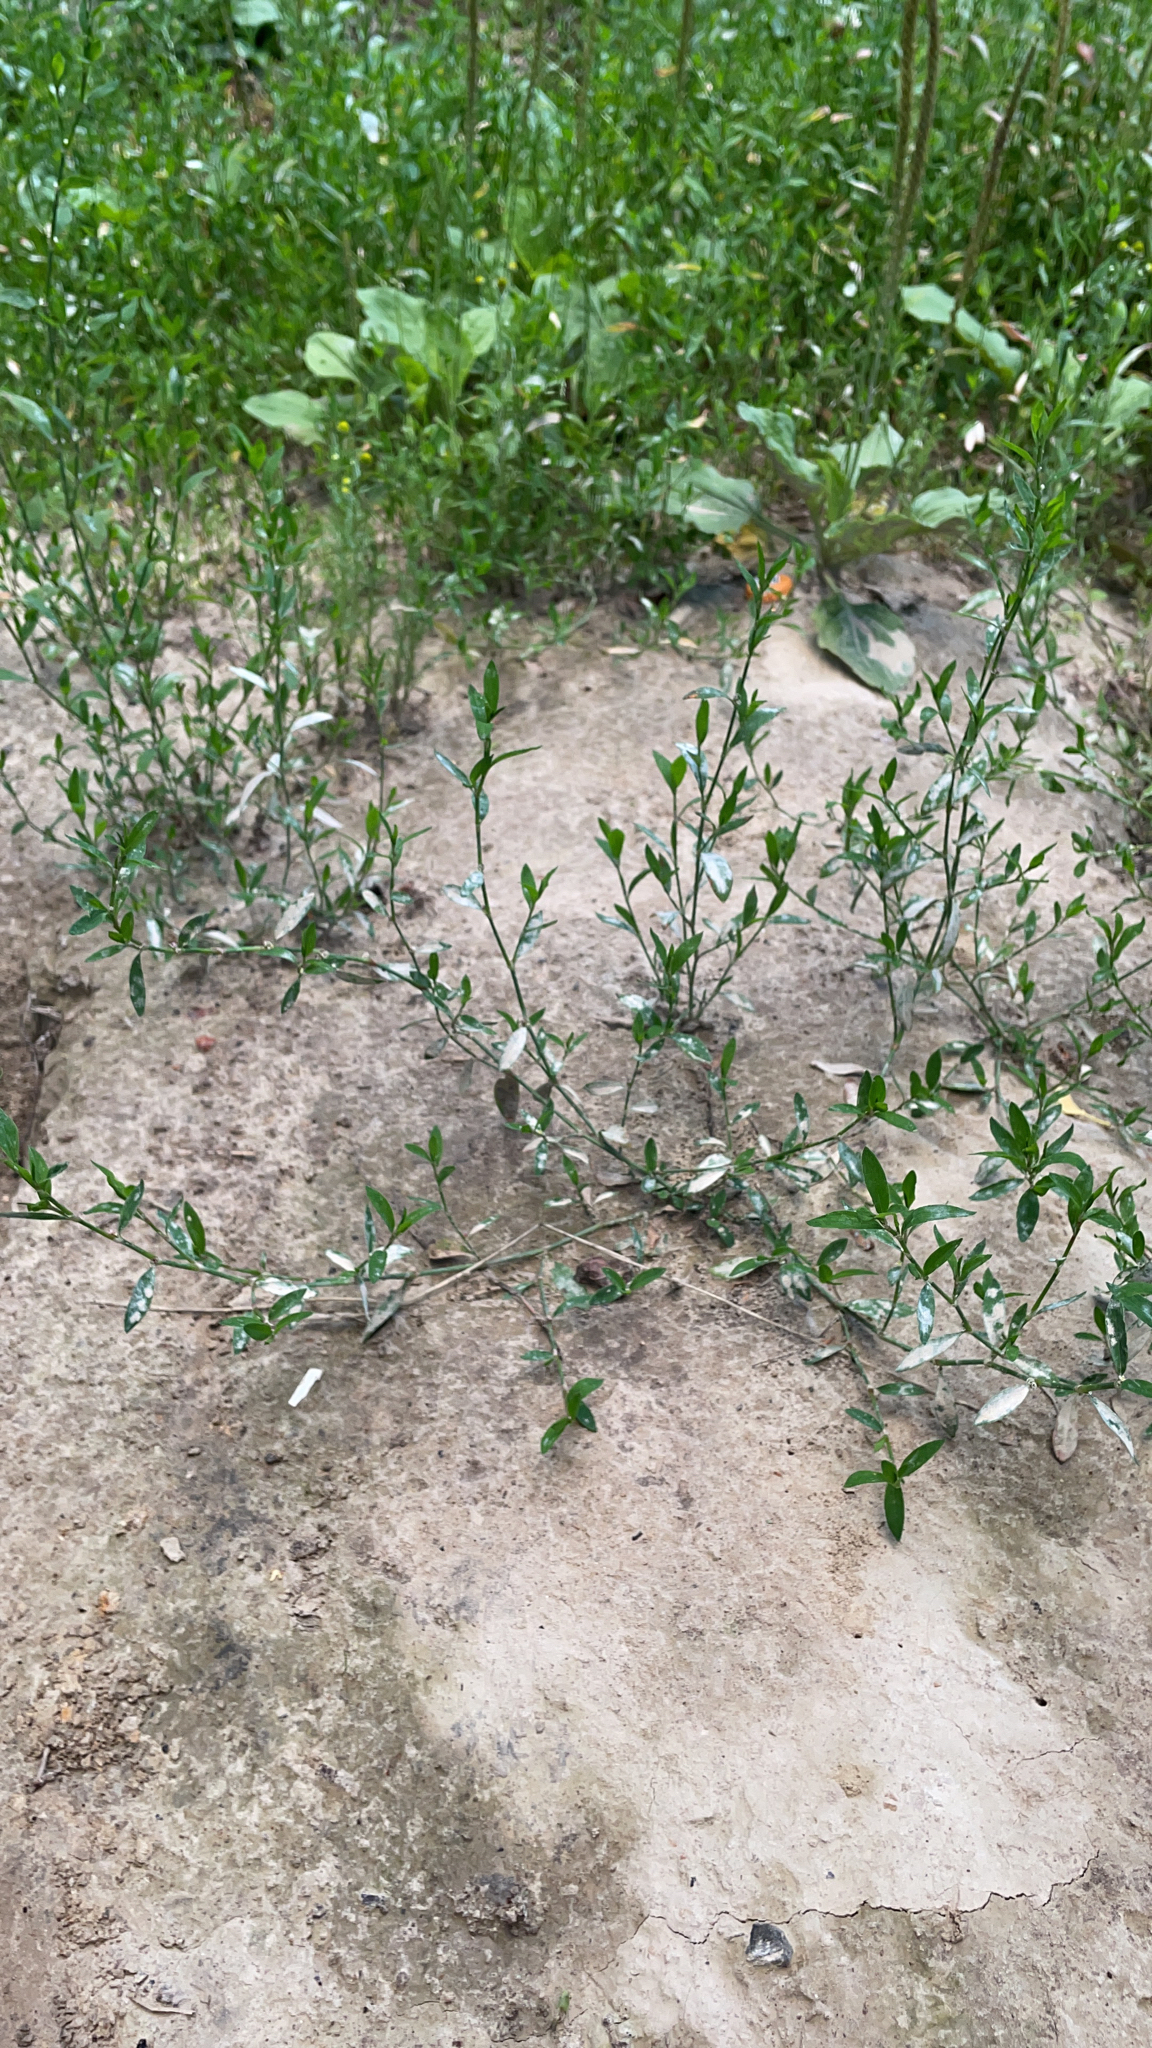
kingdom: Plantae
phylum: Tracheophyta
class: Magnoliopsida
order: Caryophyllales
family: Polygonaceae
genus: Polygonum
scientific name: Polygonum
